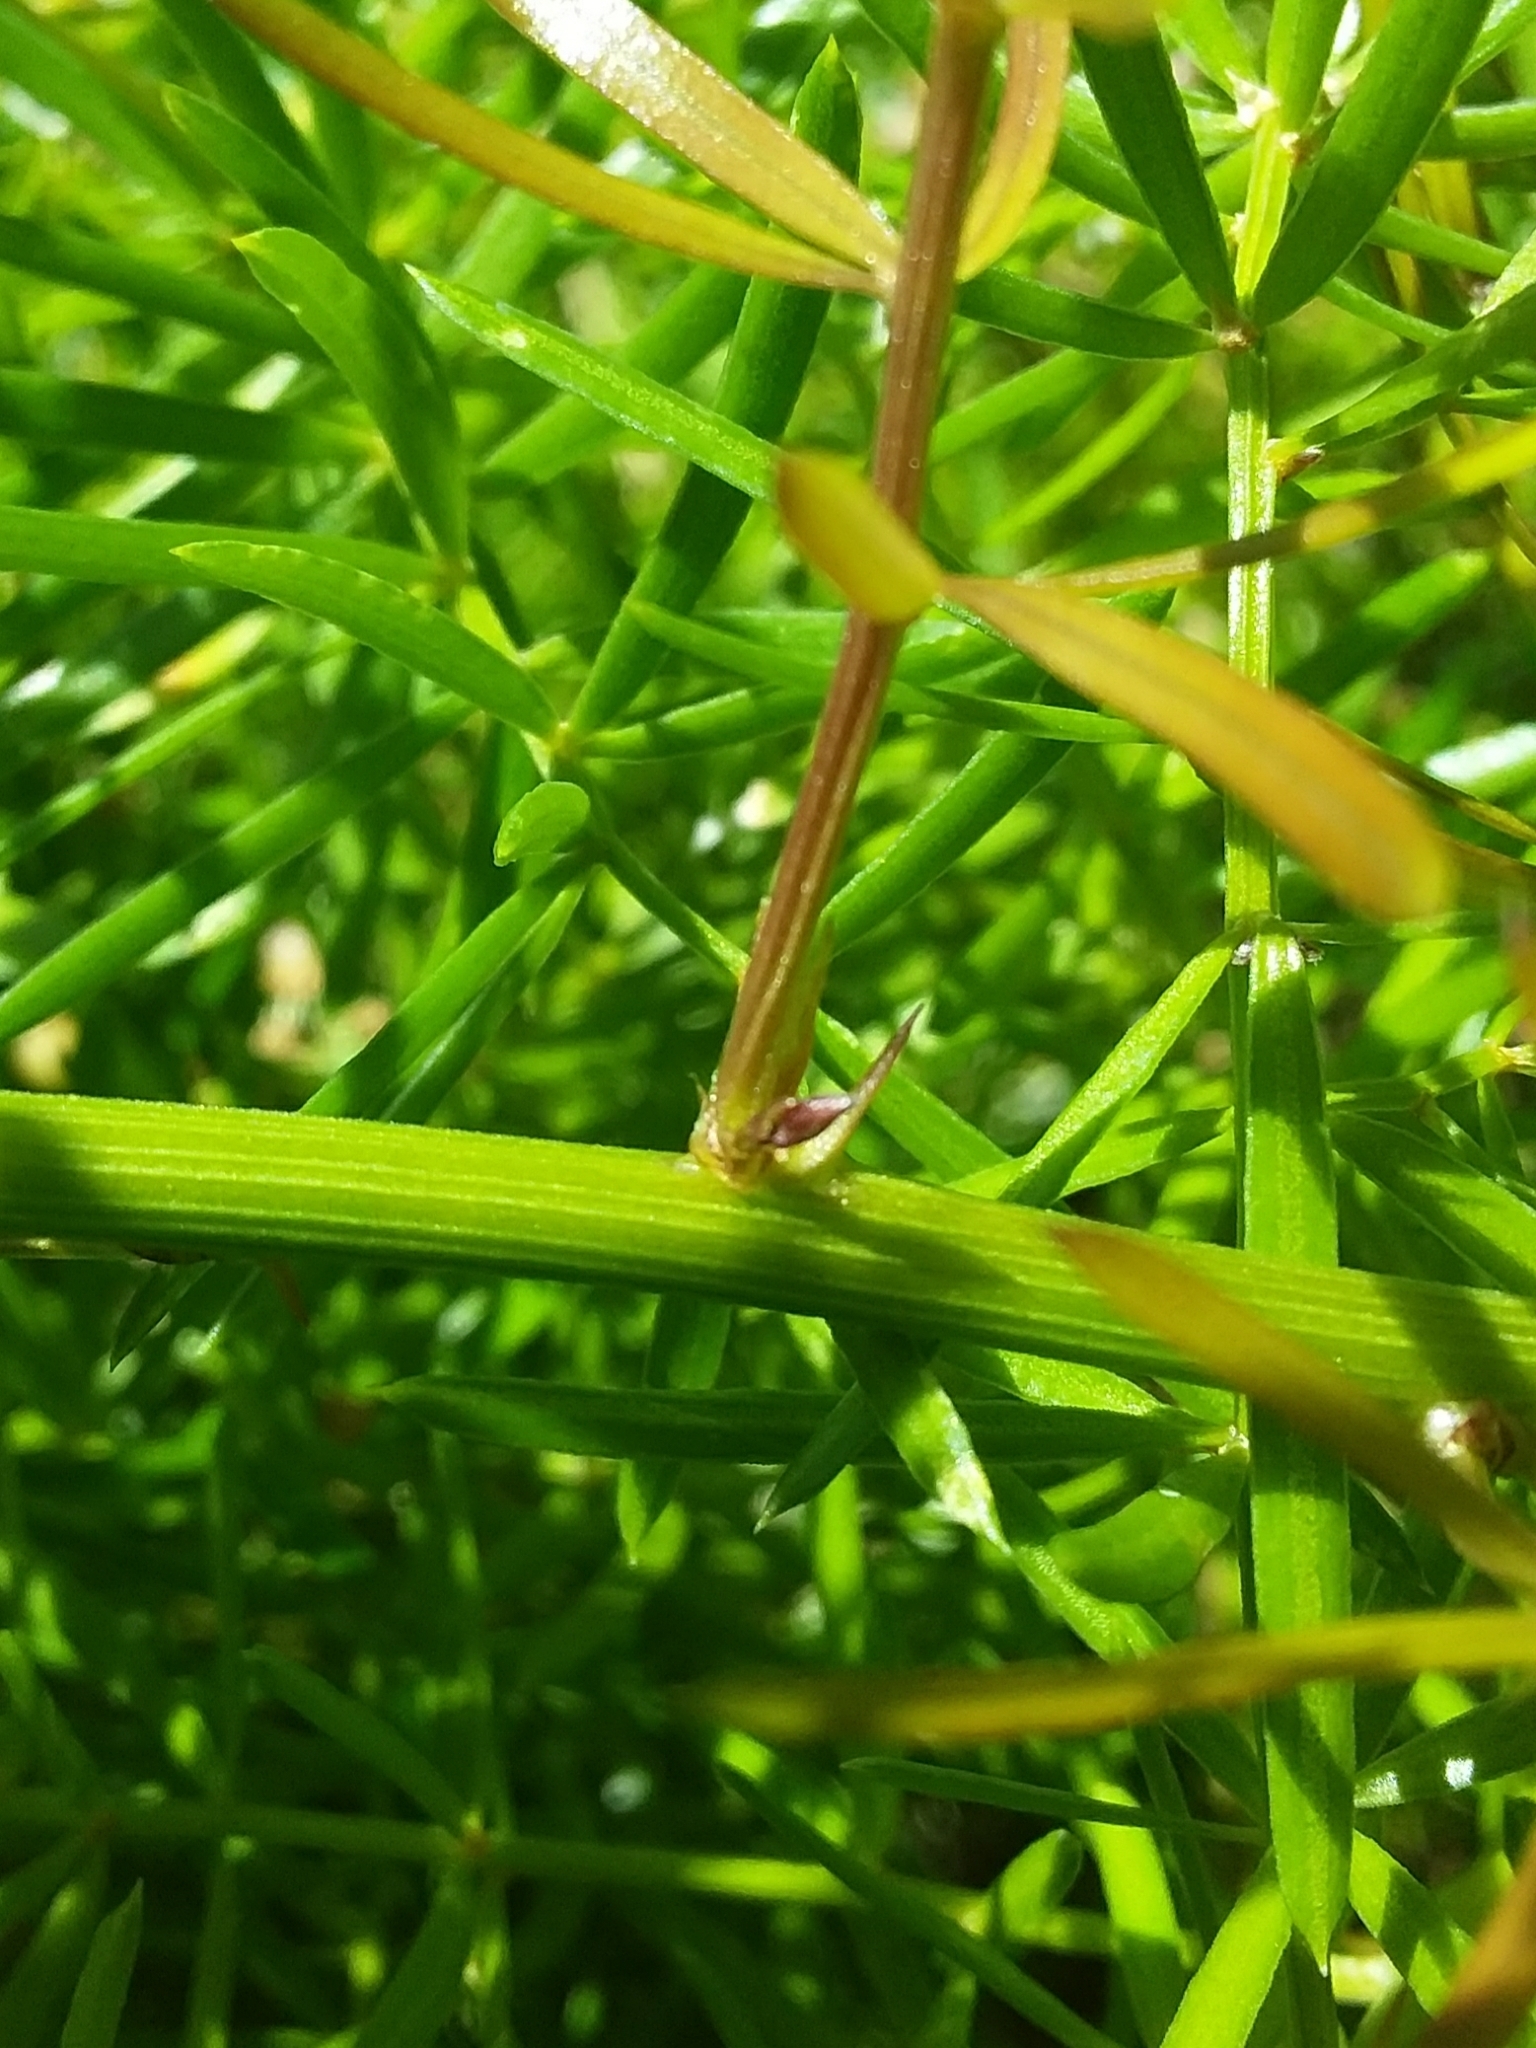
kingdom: Plantae
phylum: Tracheophyta
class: Liliopsida
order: Asparagales
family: Asparagaceae
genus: Asparagus
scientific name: Asparagus aethiopicus
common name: Sprenger's asparagus fern
